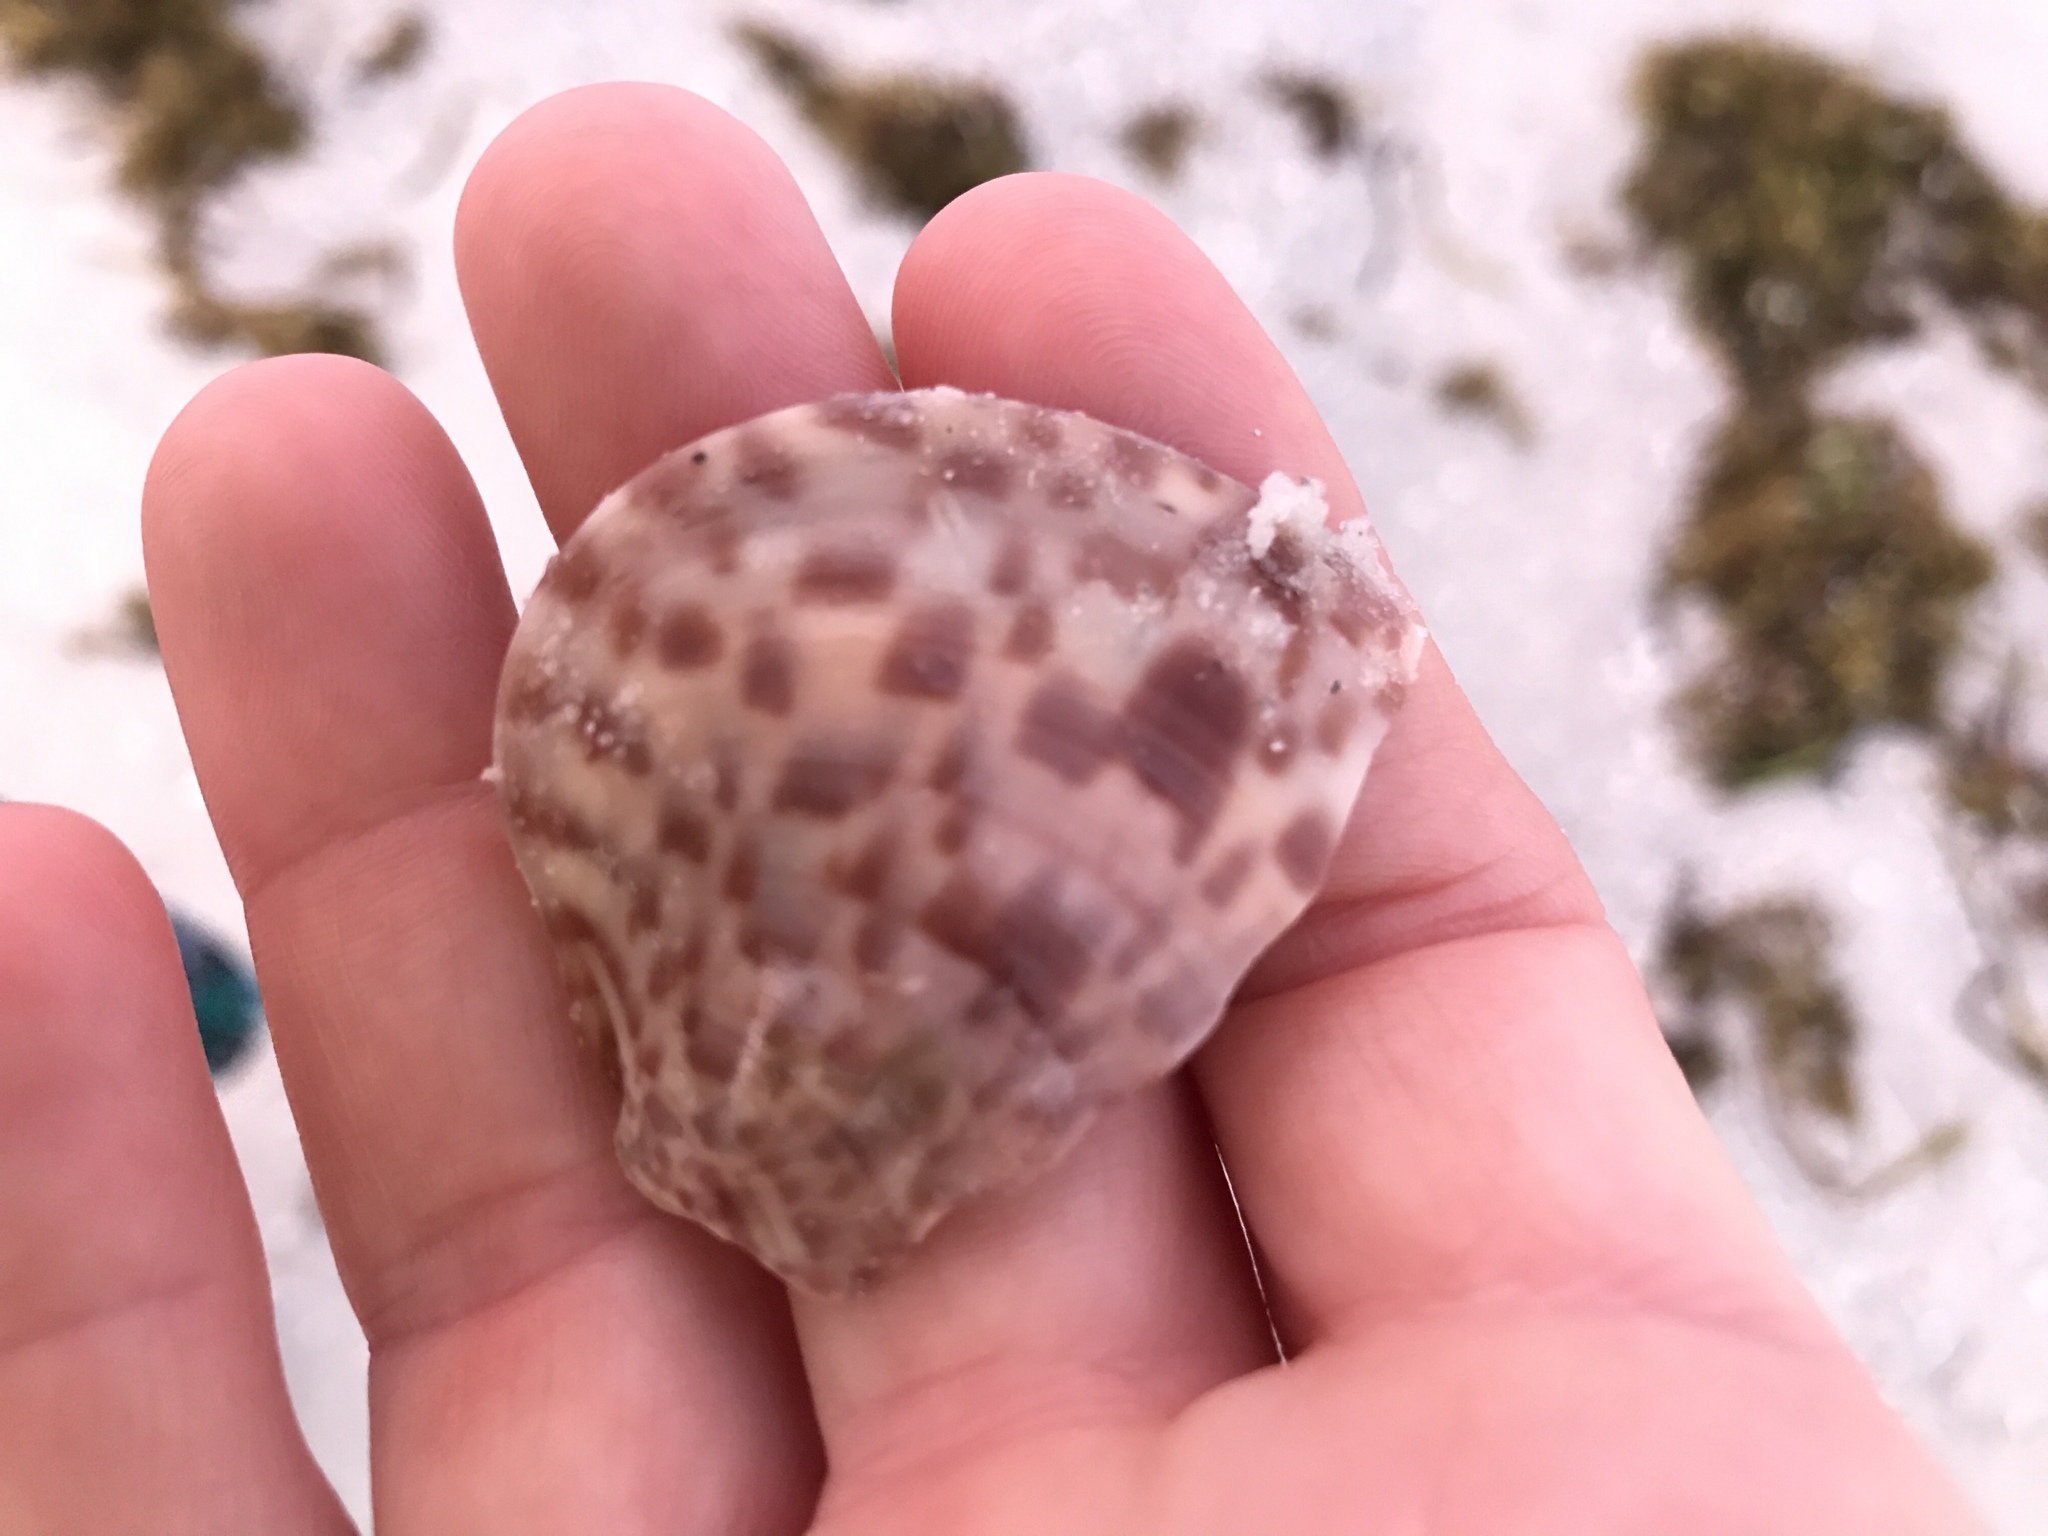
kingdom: Animalia
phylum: Mollusca
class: Bivalvia
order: Venerida
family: Veneridae
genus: Megapitaria
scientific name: Megapitaria maculata
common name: Calico clam
